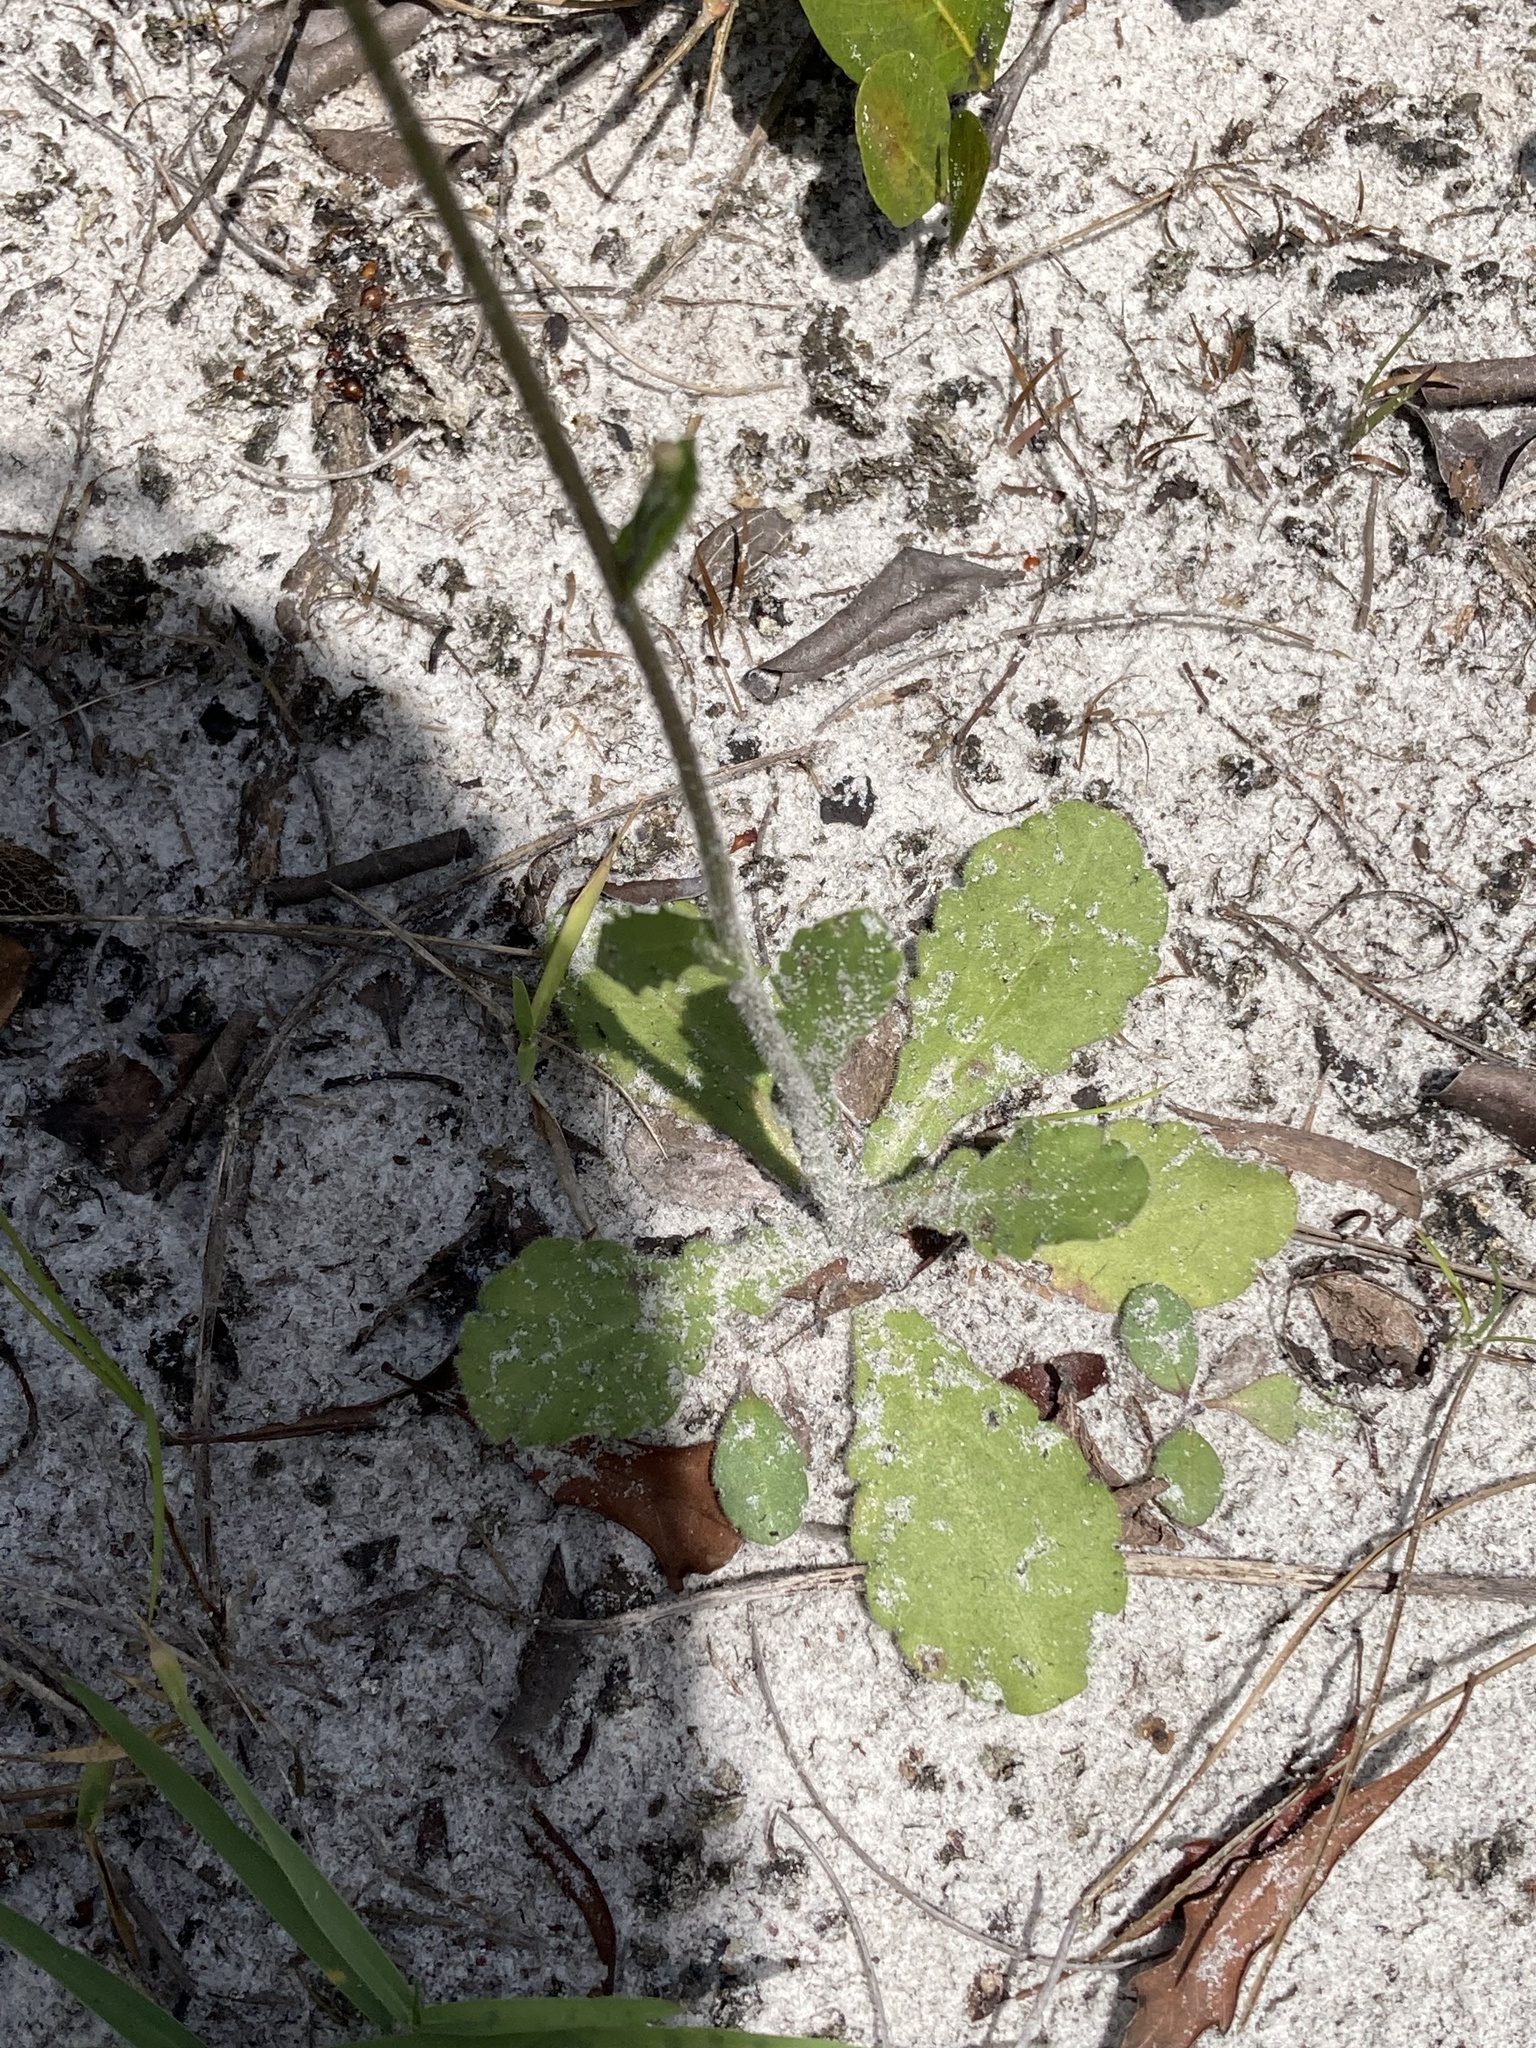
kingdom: Plantae
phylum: Tracheophyta
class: Magnoliopsida
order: Asterales
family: Asteraceae
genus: Erigeron
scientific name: Erigeron quercifolius
